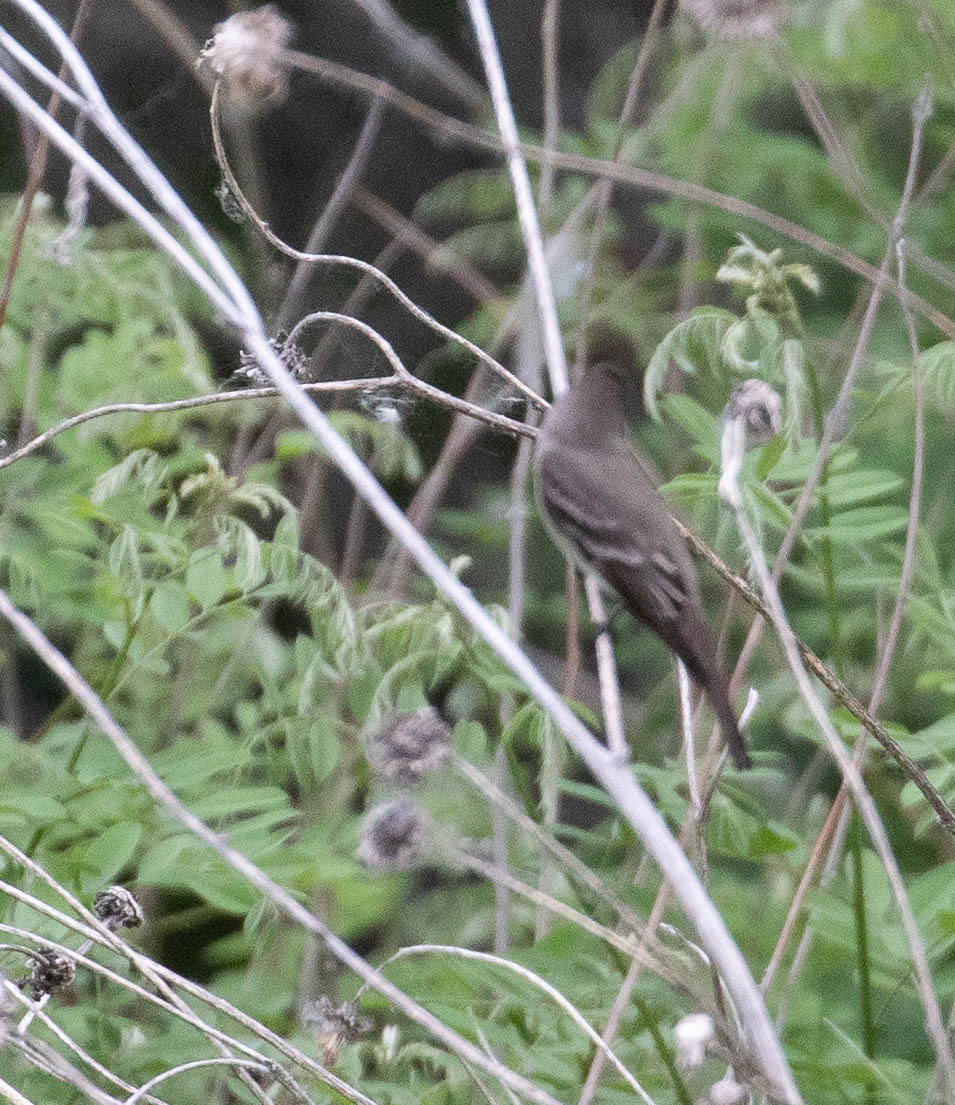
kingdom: Animalia
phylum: Chordata
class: Aves
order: Passeriformes
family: Tyrannidae
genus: Contopus
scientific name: Contopus sordidulus
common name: Western wood-pewee
